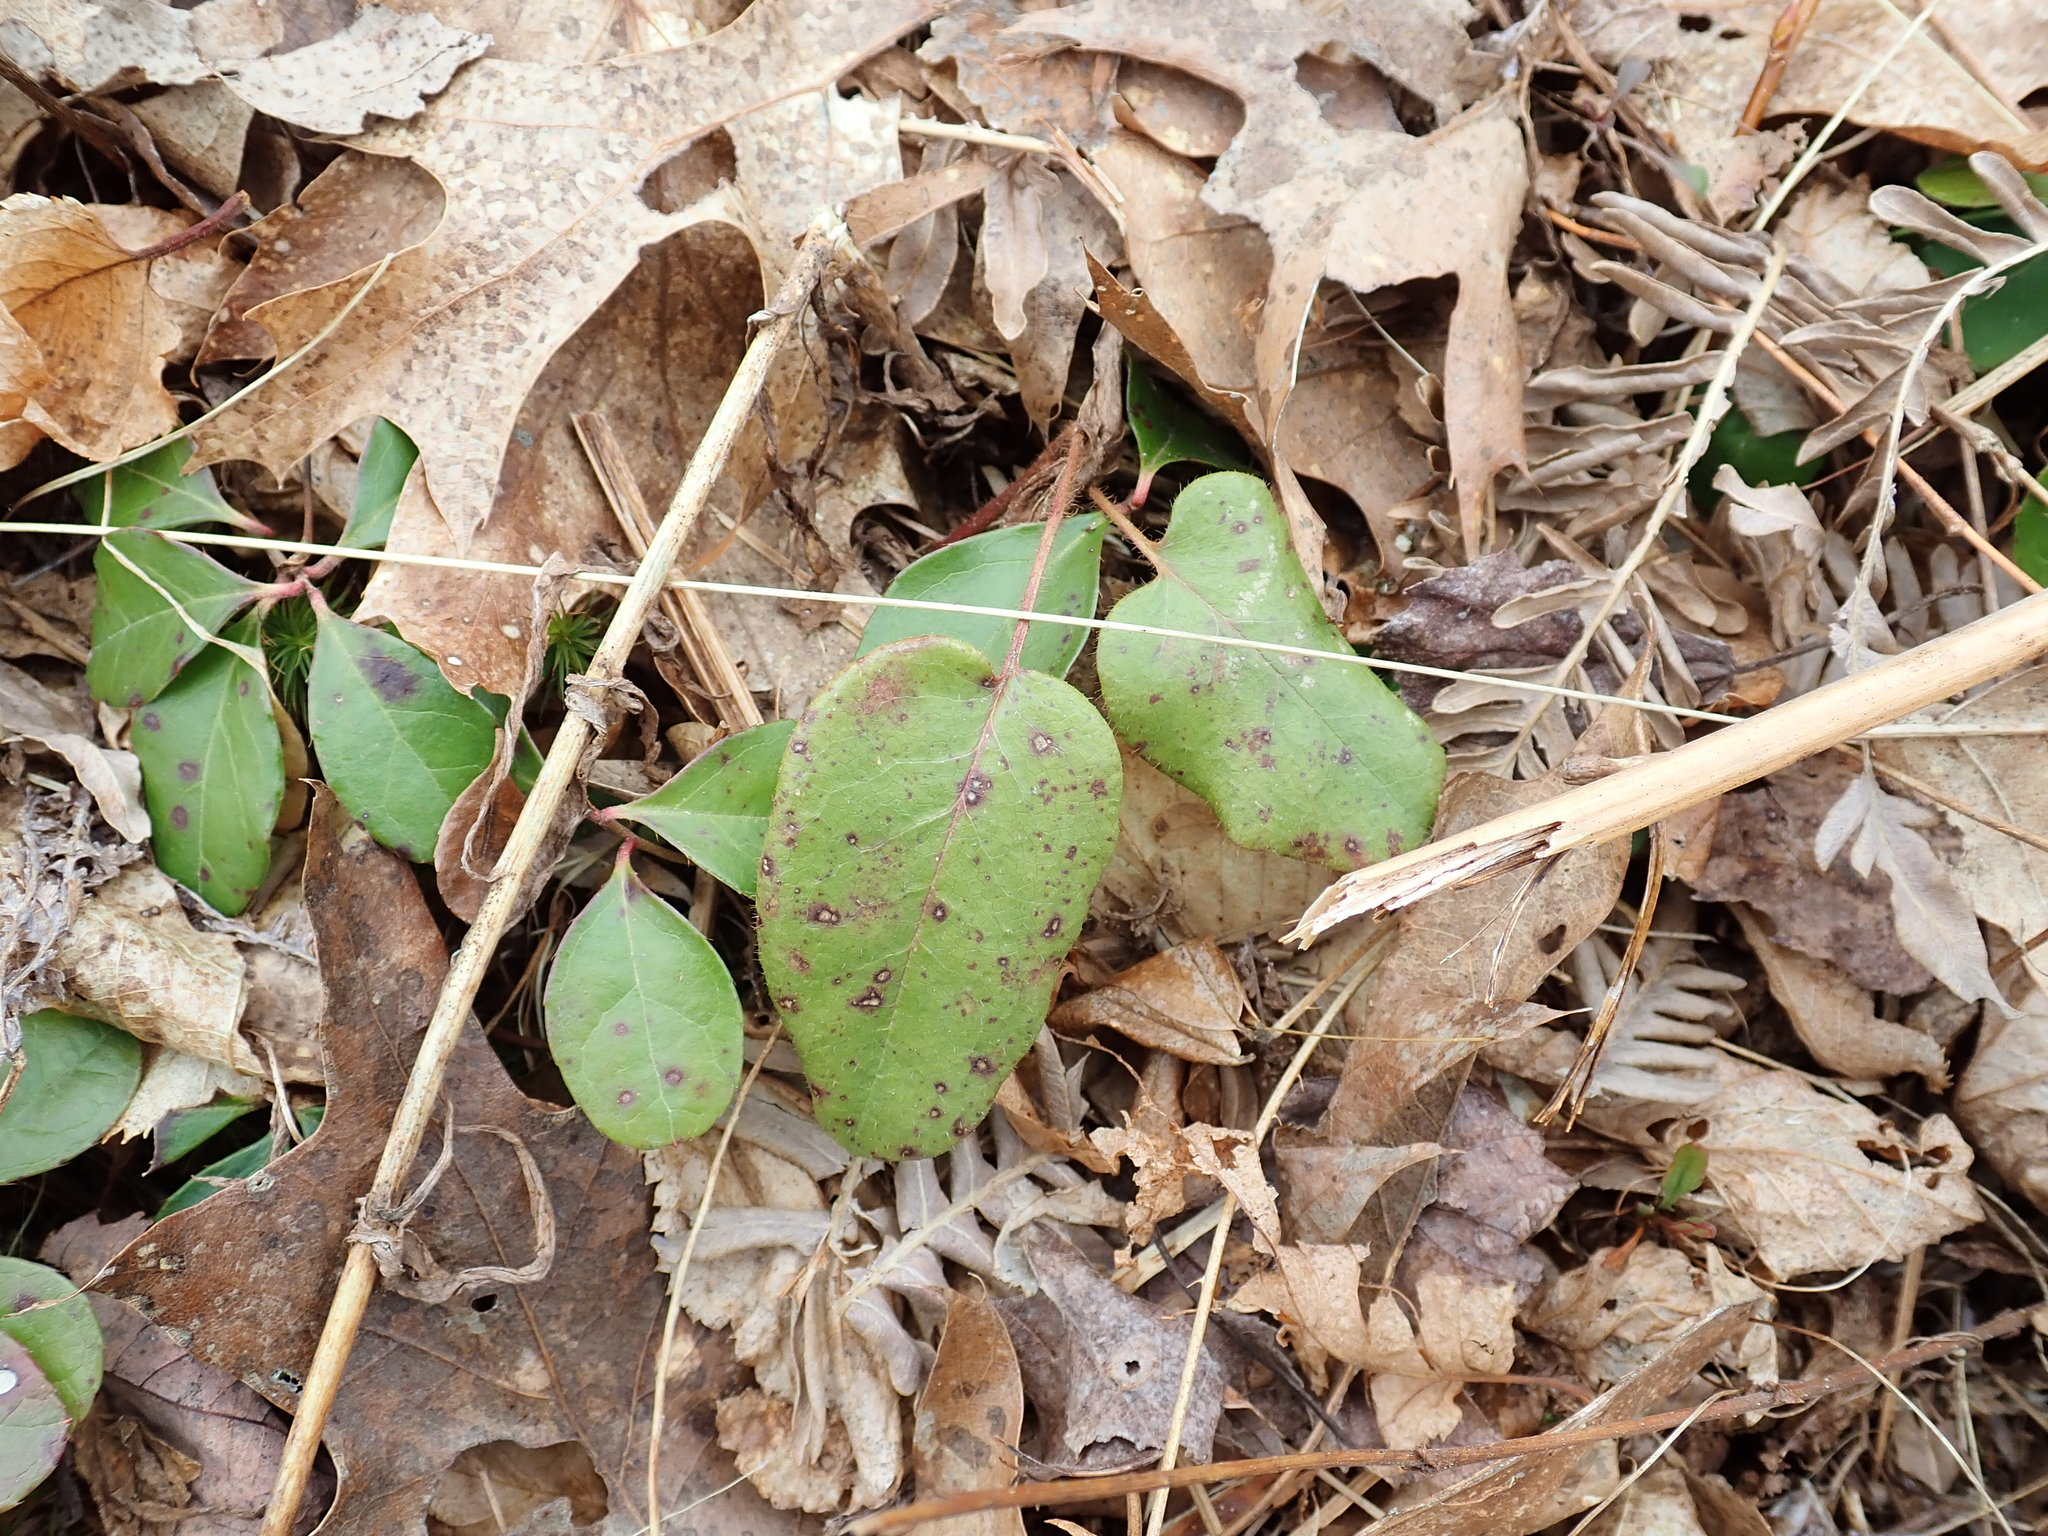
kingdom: Plantae
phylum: Tracheophyta
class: Magnoliopsida
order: Ericales
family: Ericaceae
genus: Epigaea
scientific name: Epigaea repens
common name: Gravelroot
